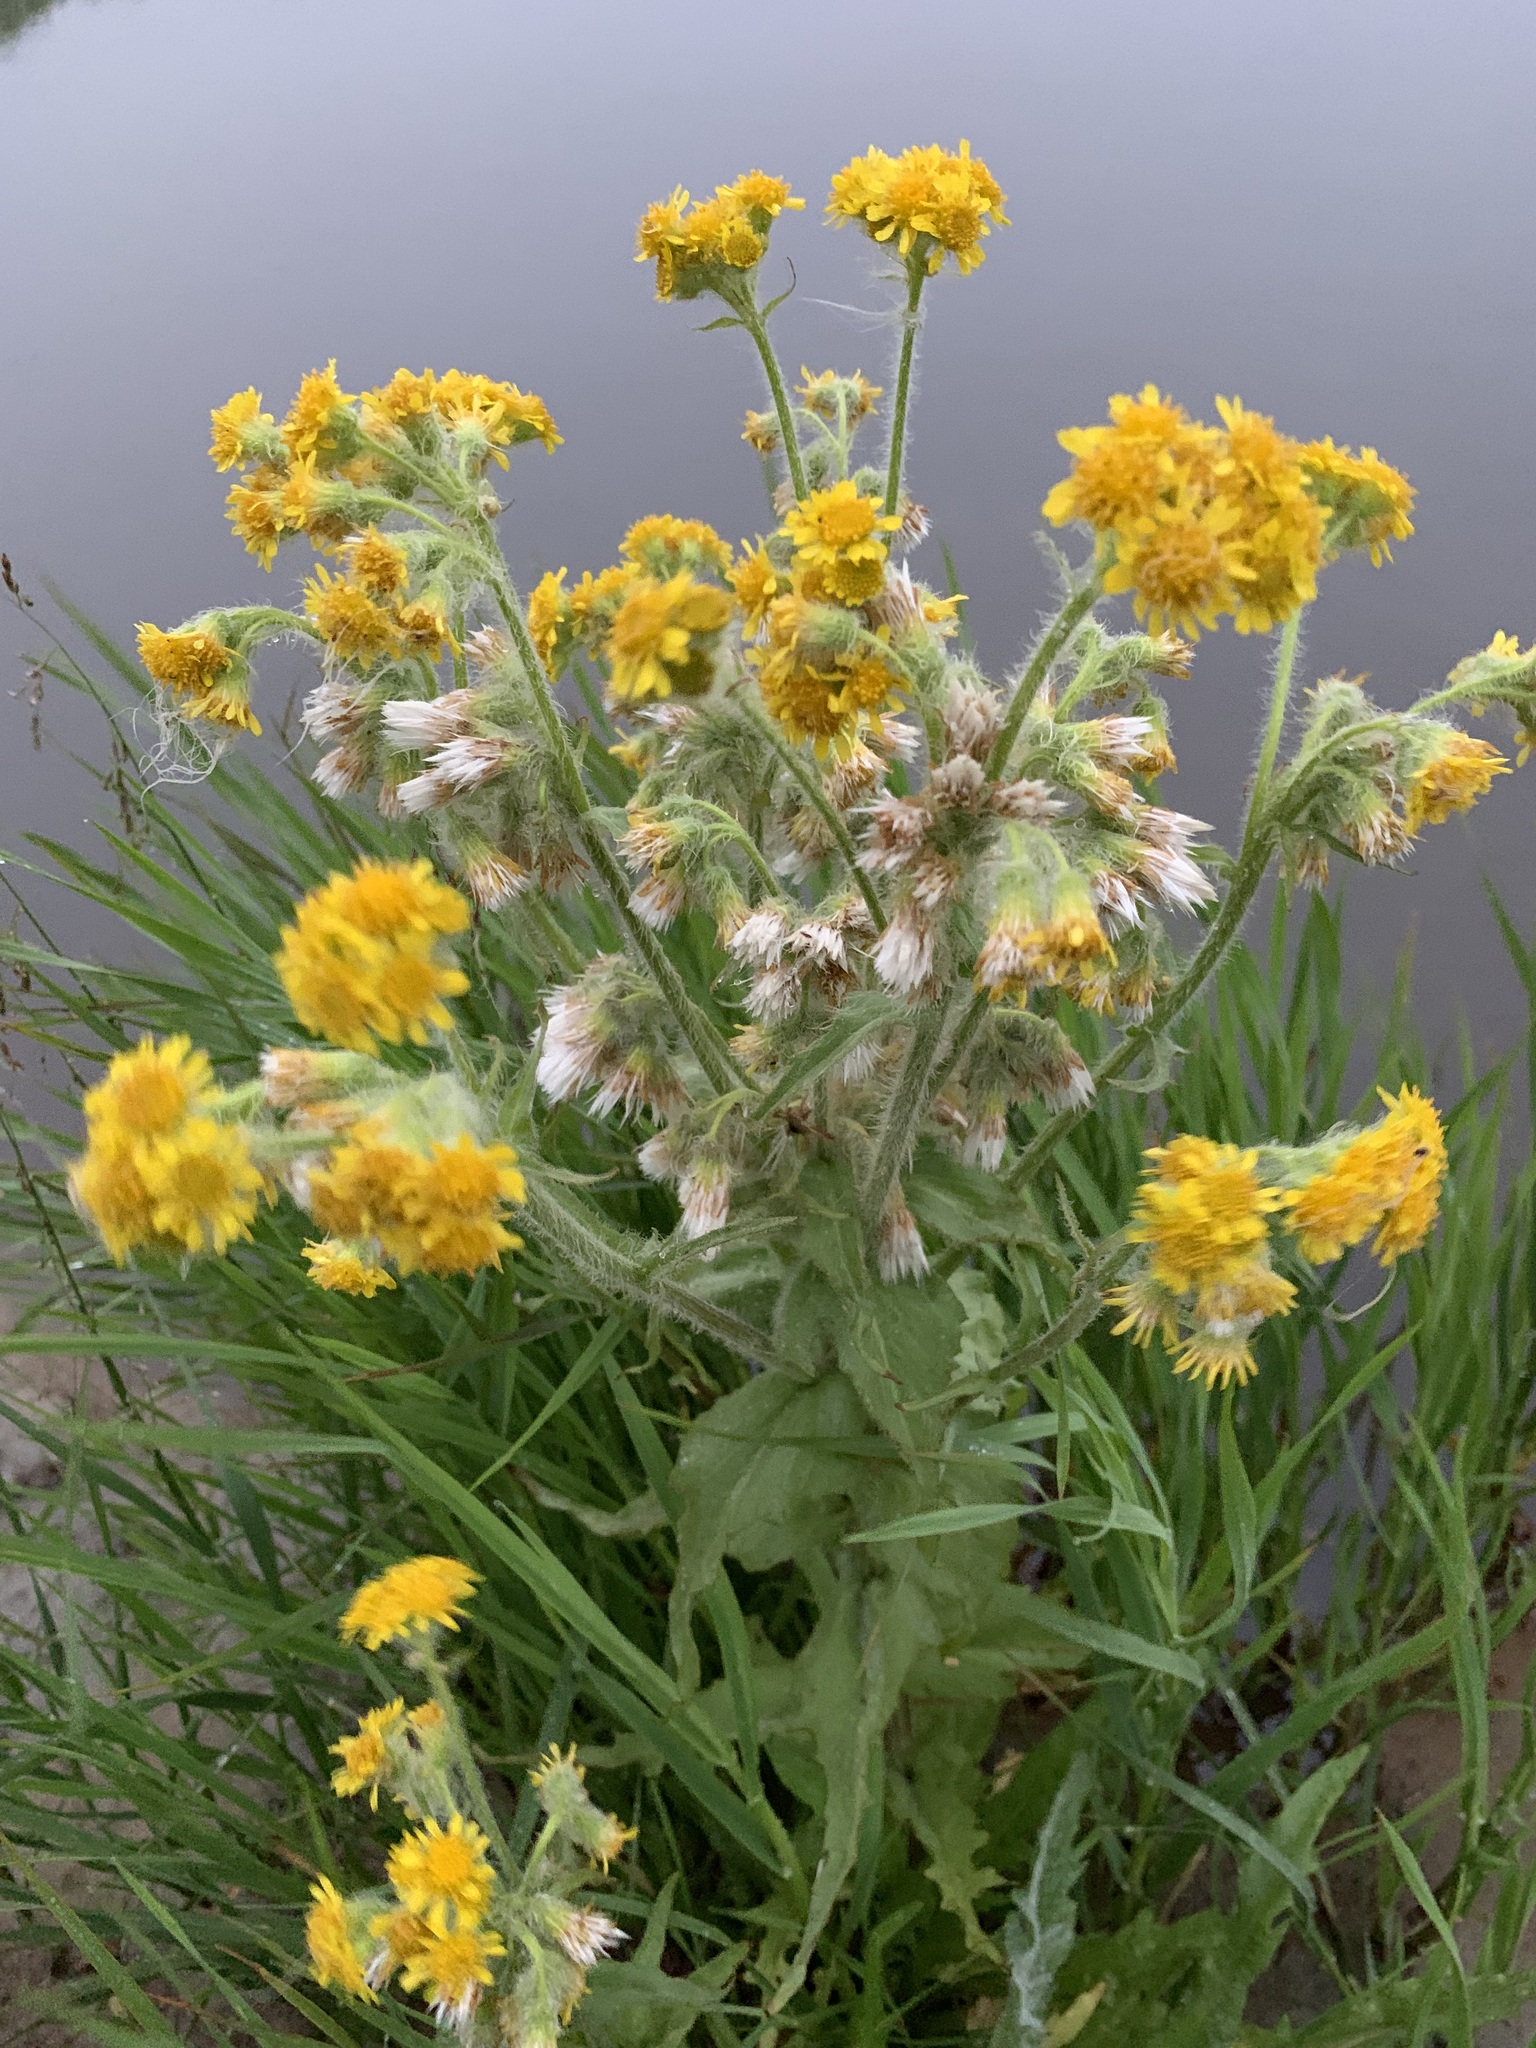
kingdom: Plantae
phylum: Tracheophyta
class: Magnoliopsida
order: Asterales
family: Asteraceae
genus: Tephroseris
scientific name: Tephroseris palustris
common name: Marsh fleawort
